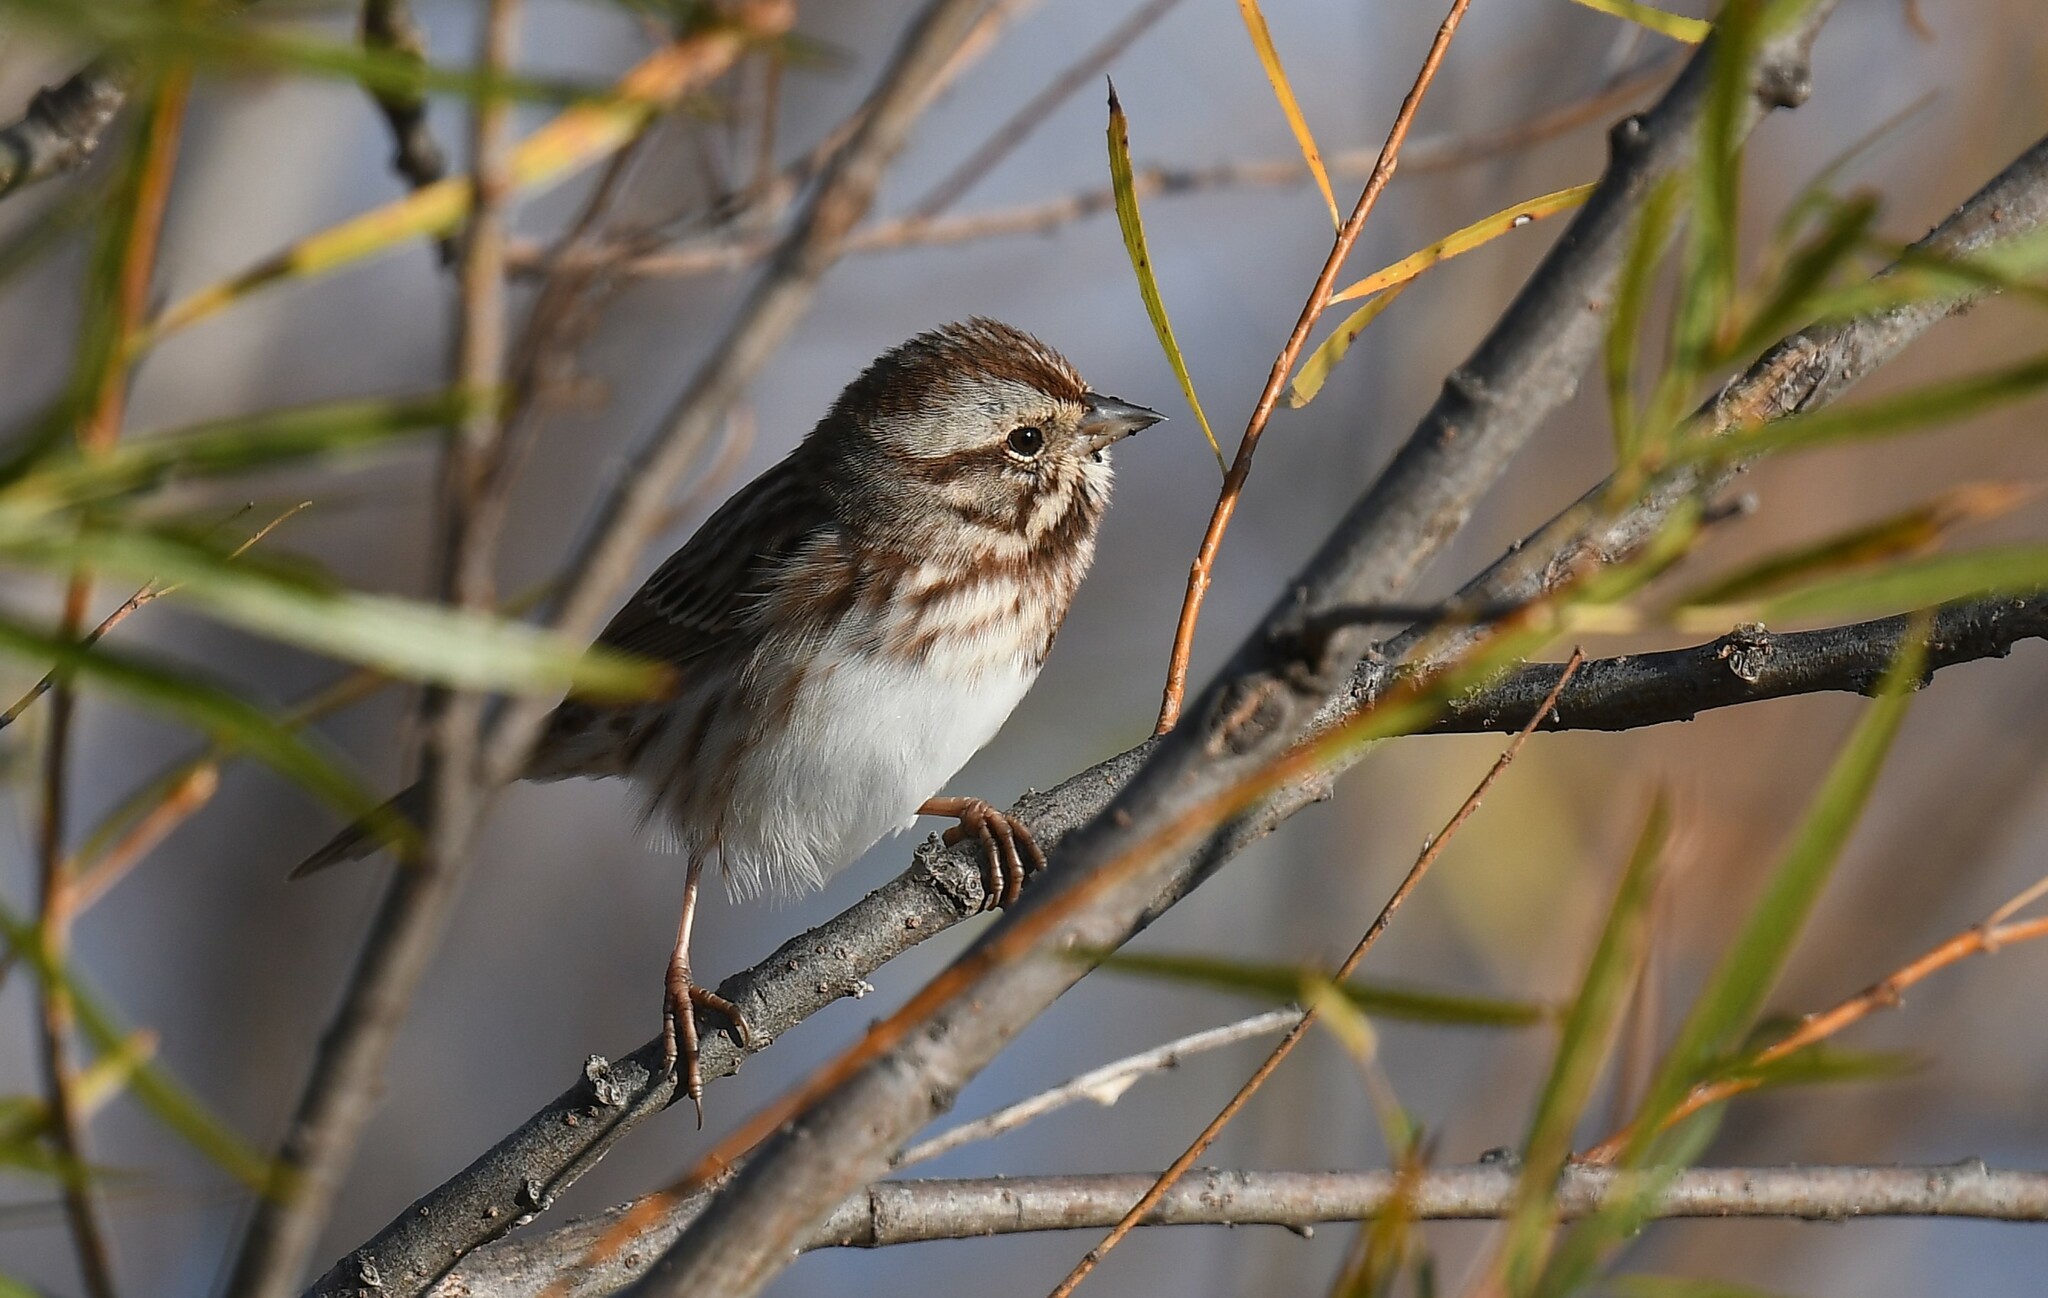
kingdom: Animalia
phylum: Chordata
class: Aves
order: Passeriformes
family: Passerellidae
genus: Melospiza
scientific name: Melospiza melodia
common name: Song sparrow
